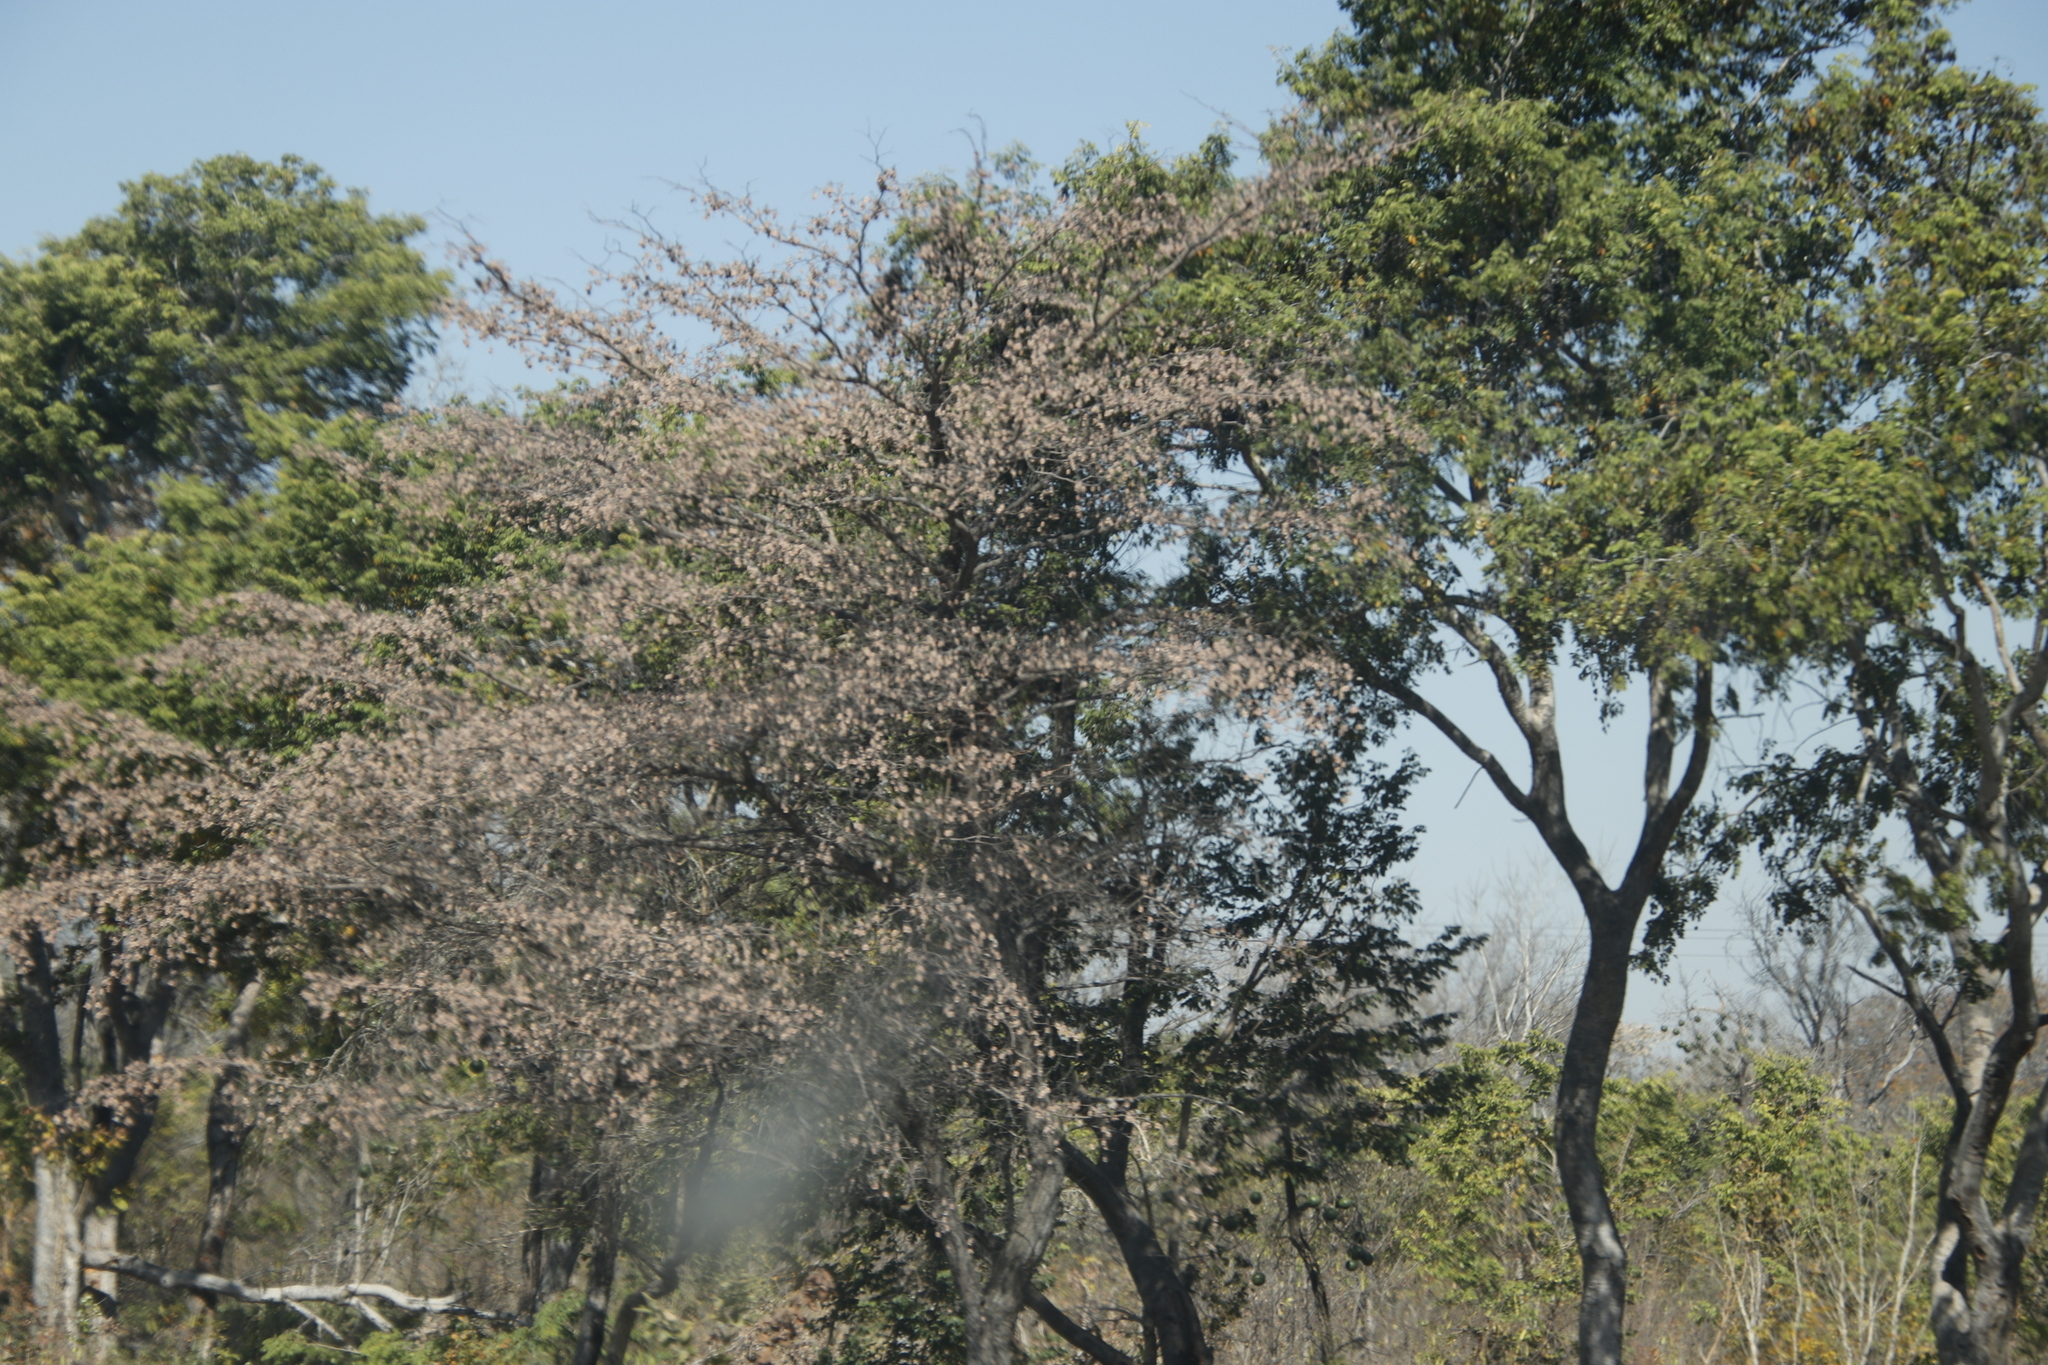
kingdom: Plantae
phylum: Tracheophyta
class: Magnoliopsida
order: Myrtales
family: Combretaceae
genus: Terminalia
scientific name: Terminalia sericea
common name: Clusterleaf
